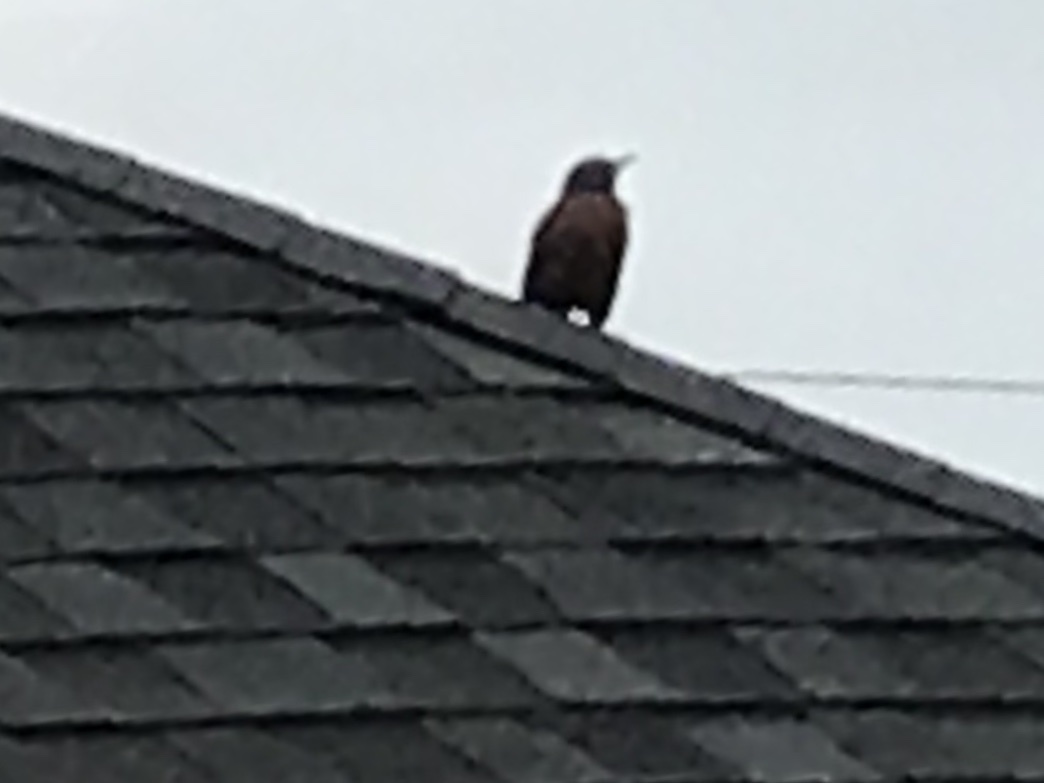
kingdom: Animalia
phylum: Chordata
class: Aves
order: Passeriformes
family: Turdidae
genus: Turdus
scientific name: Turdus migratorius
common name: American robin
